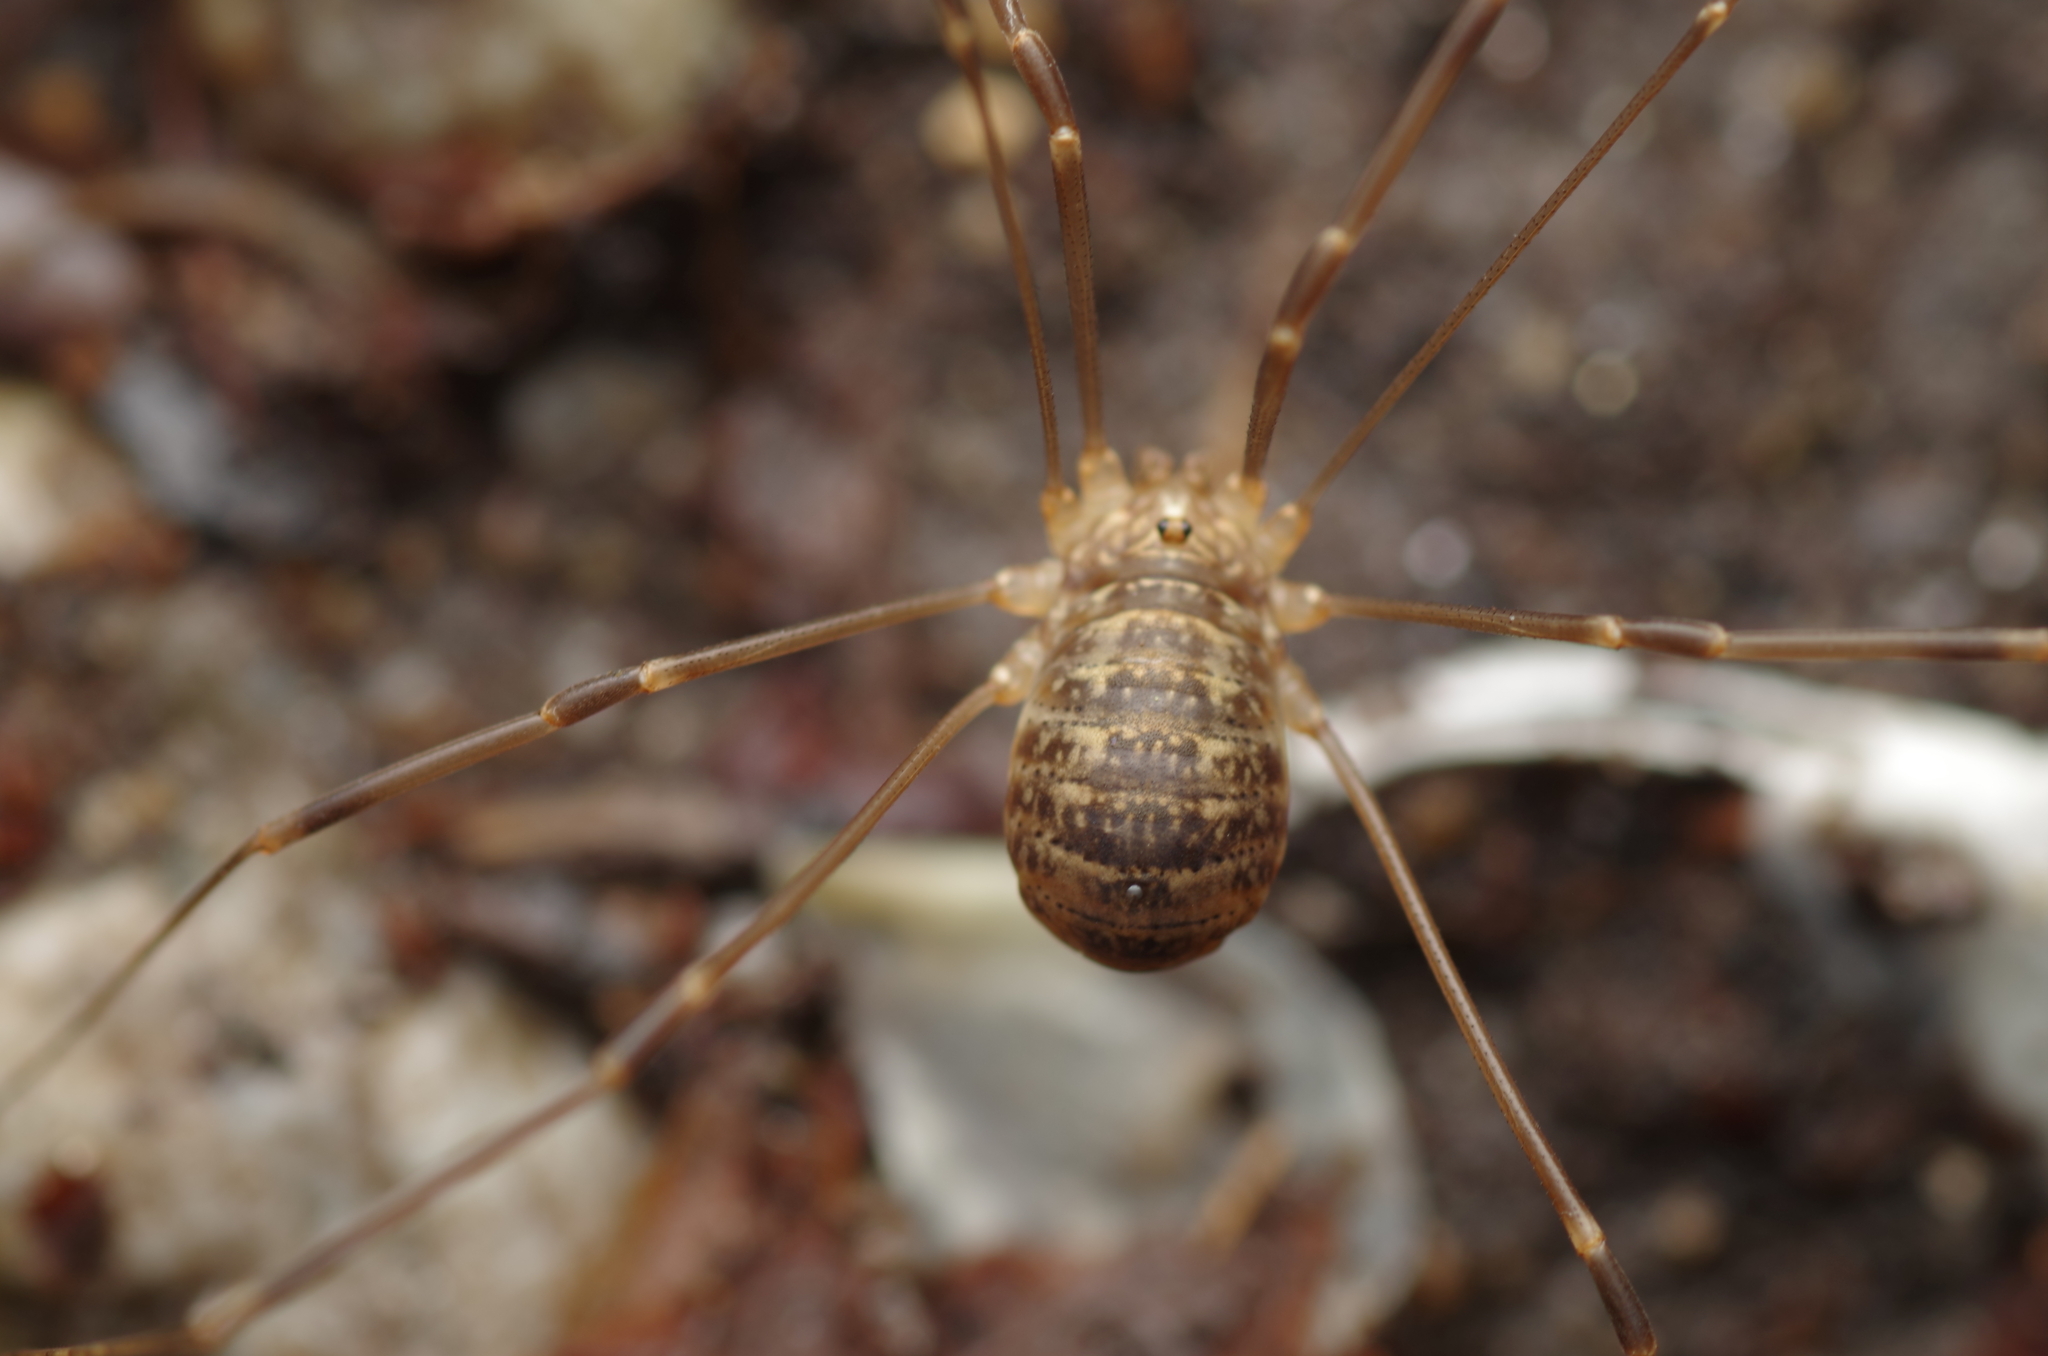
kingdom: Animalia
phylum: Arthropoda
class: Arachnida
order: Opiliones
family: Sclerosomatidae
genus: Nelima
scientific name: Nelima gothica
